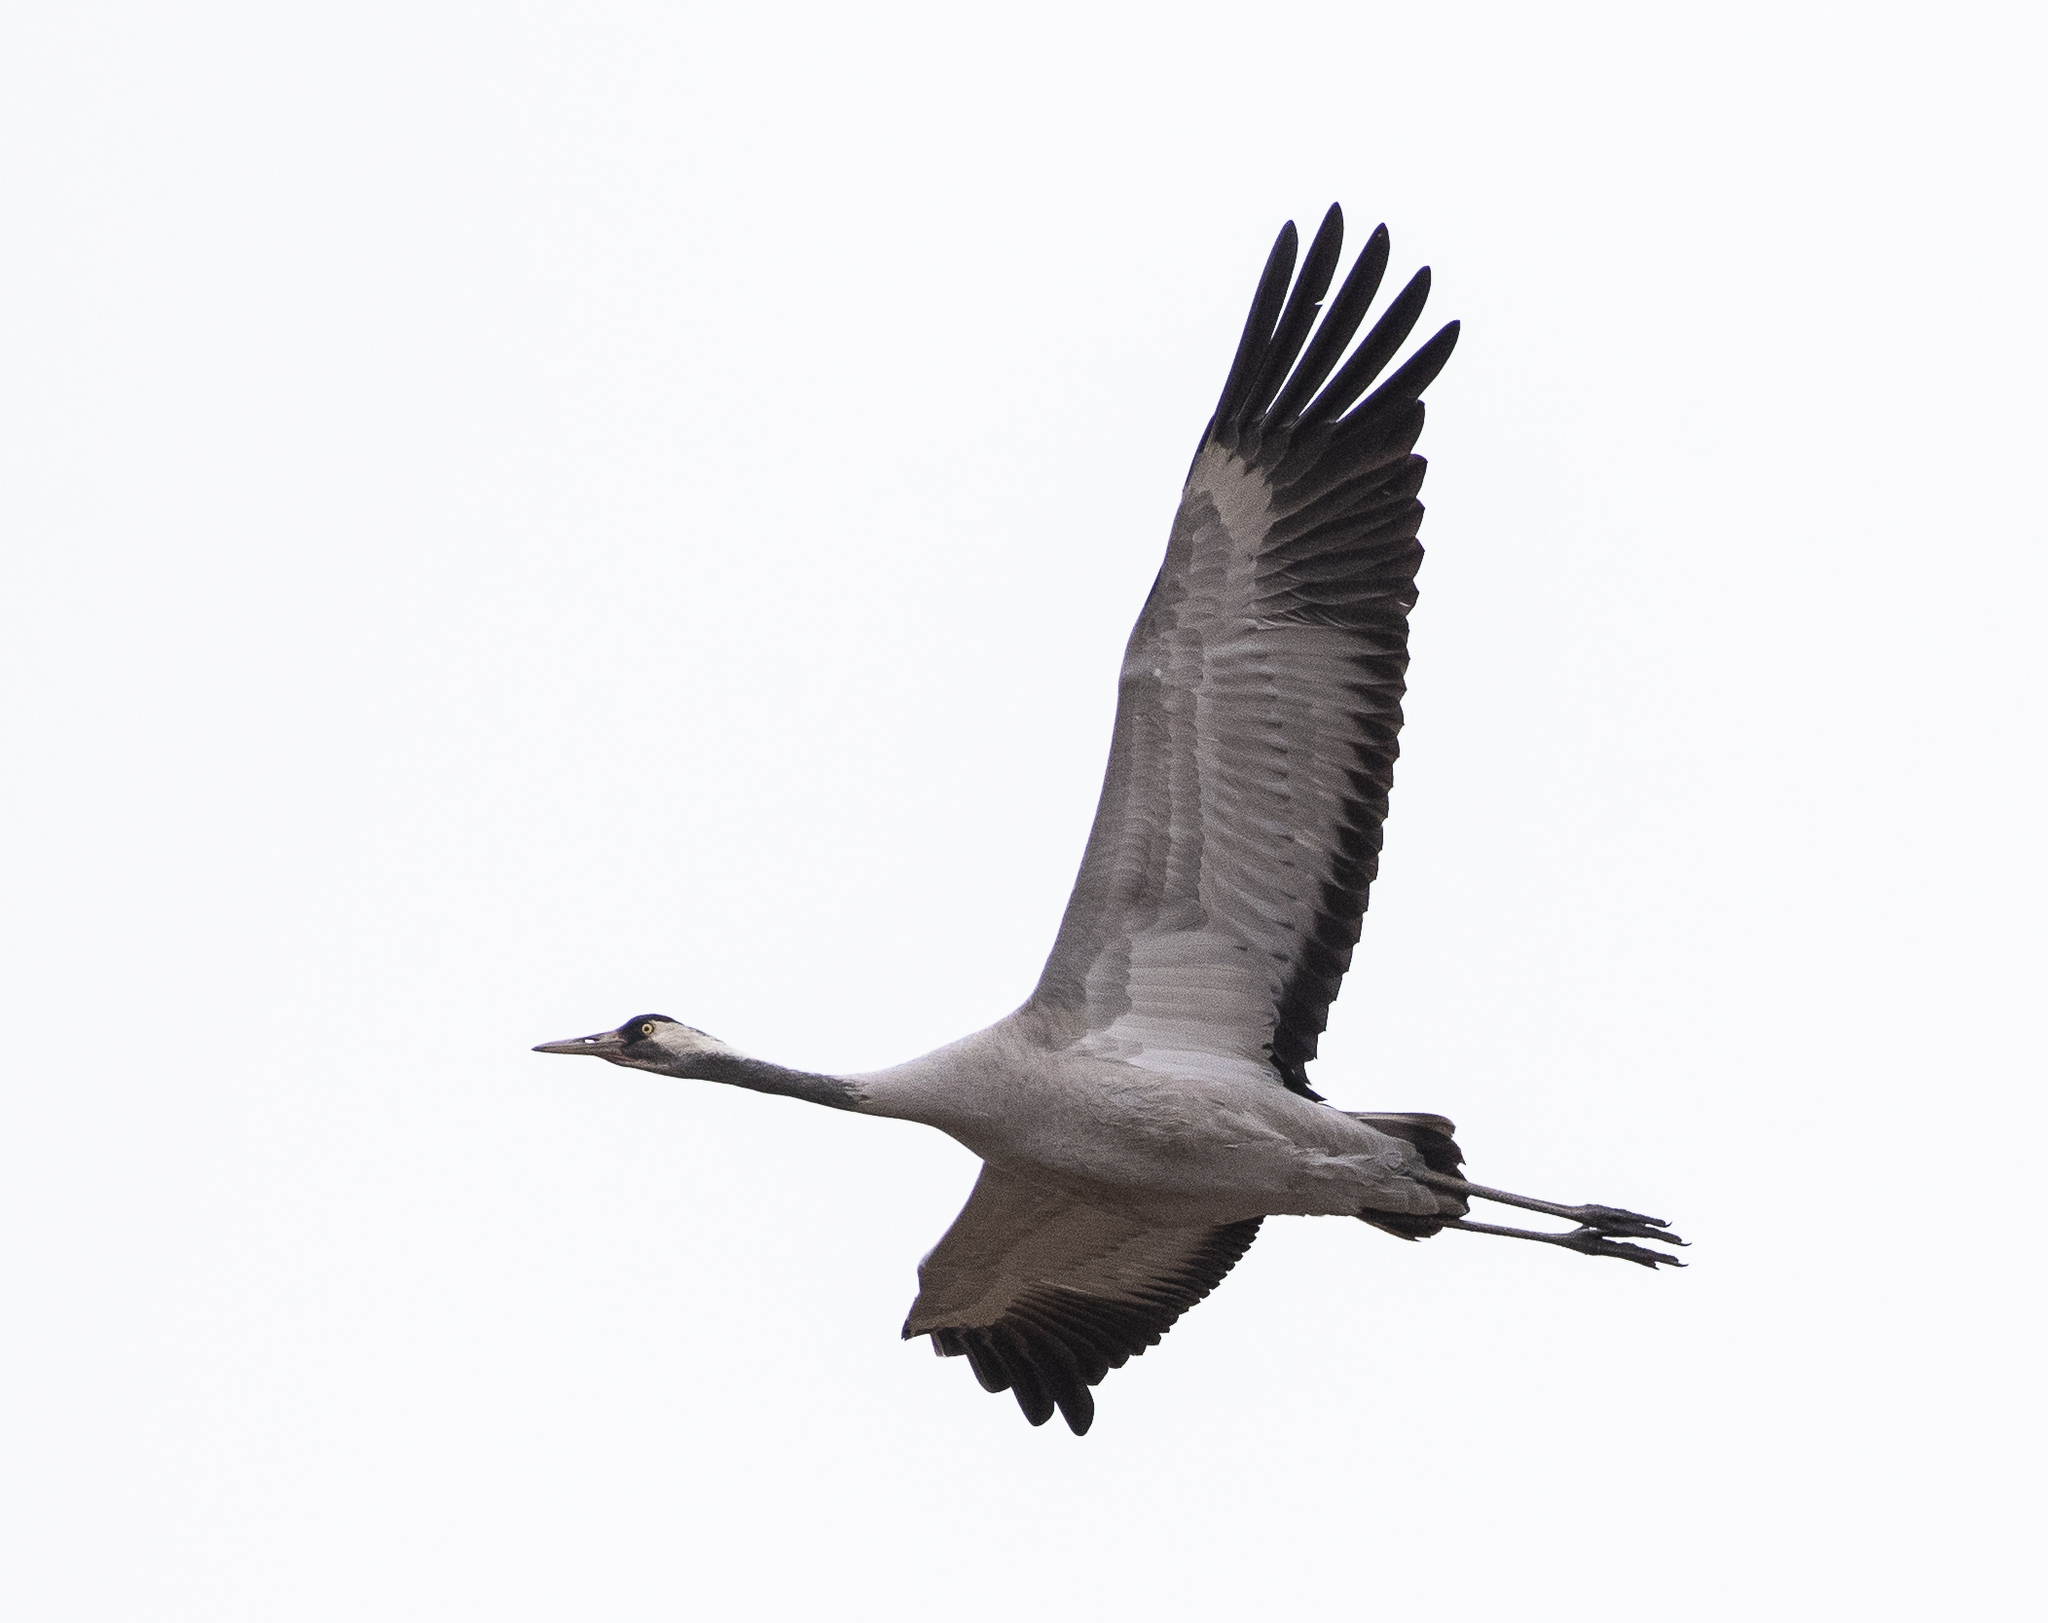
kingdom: Animalia
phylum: Chordata
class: Aves
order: Gruiformes
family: Gruidae
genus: Grus
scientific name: Grus grus
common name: Common crane
